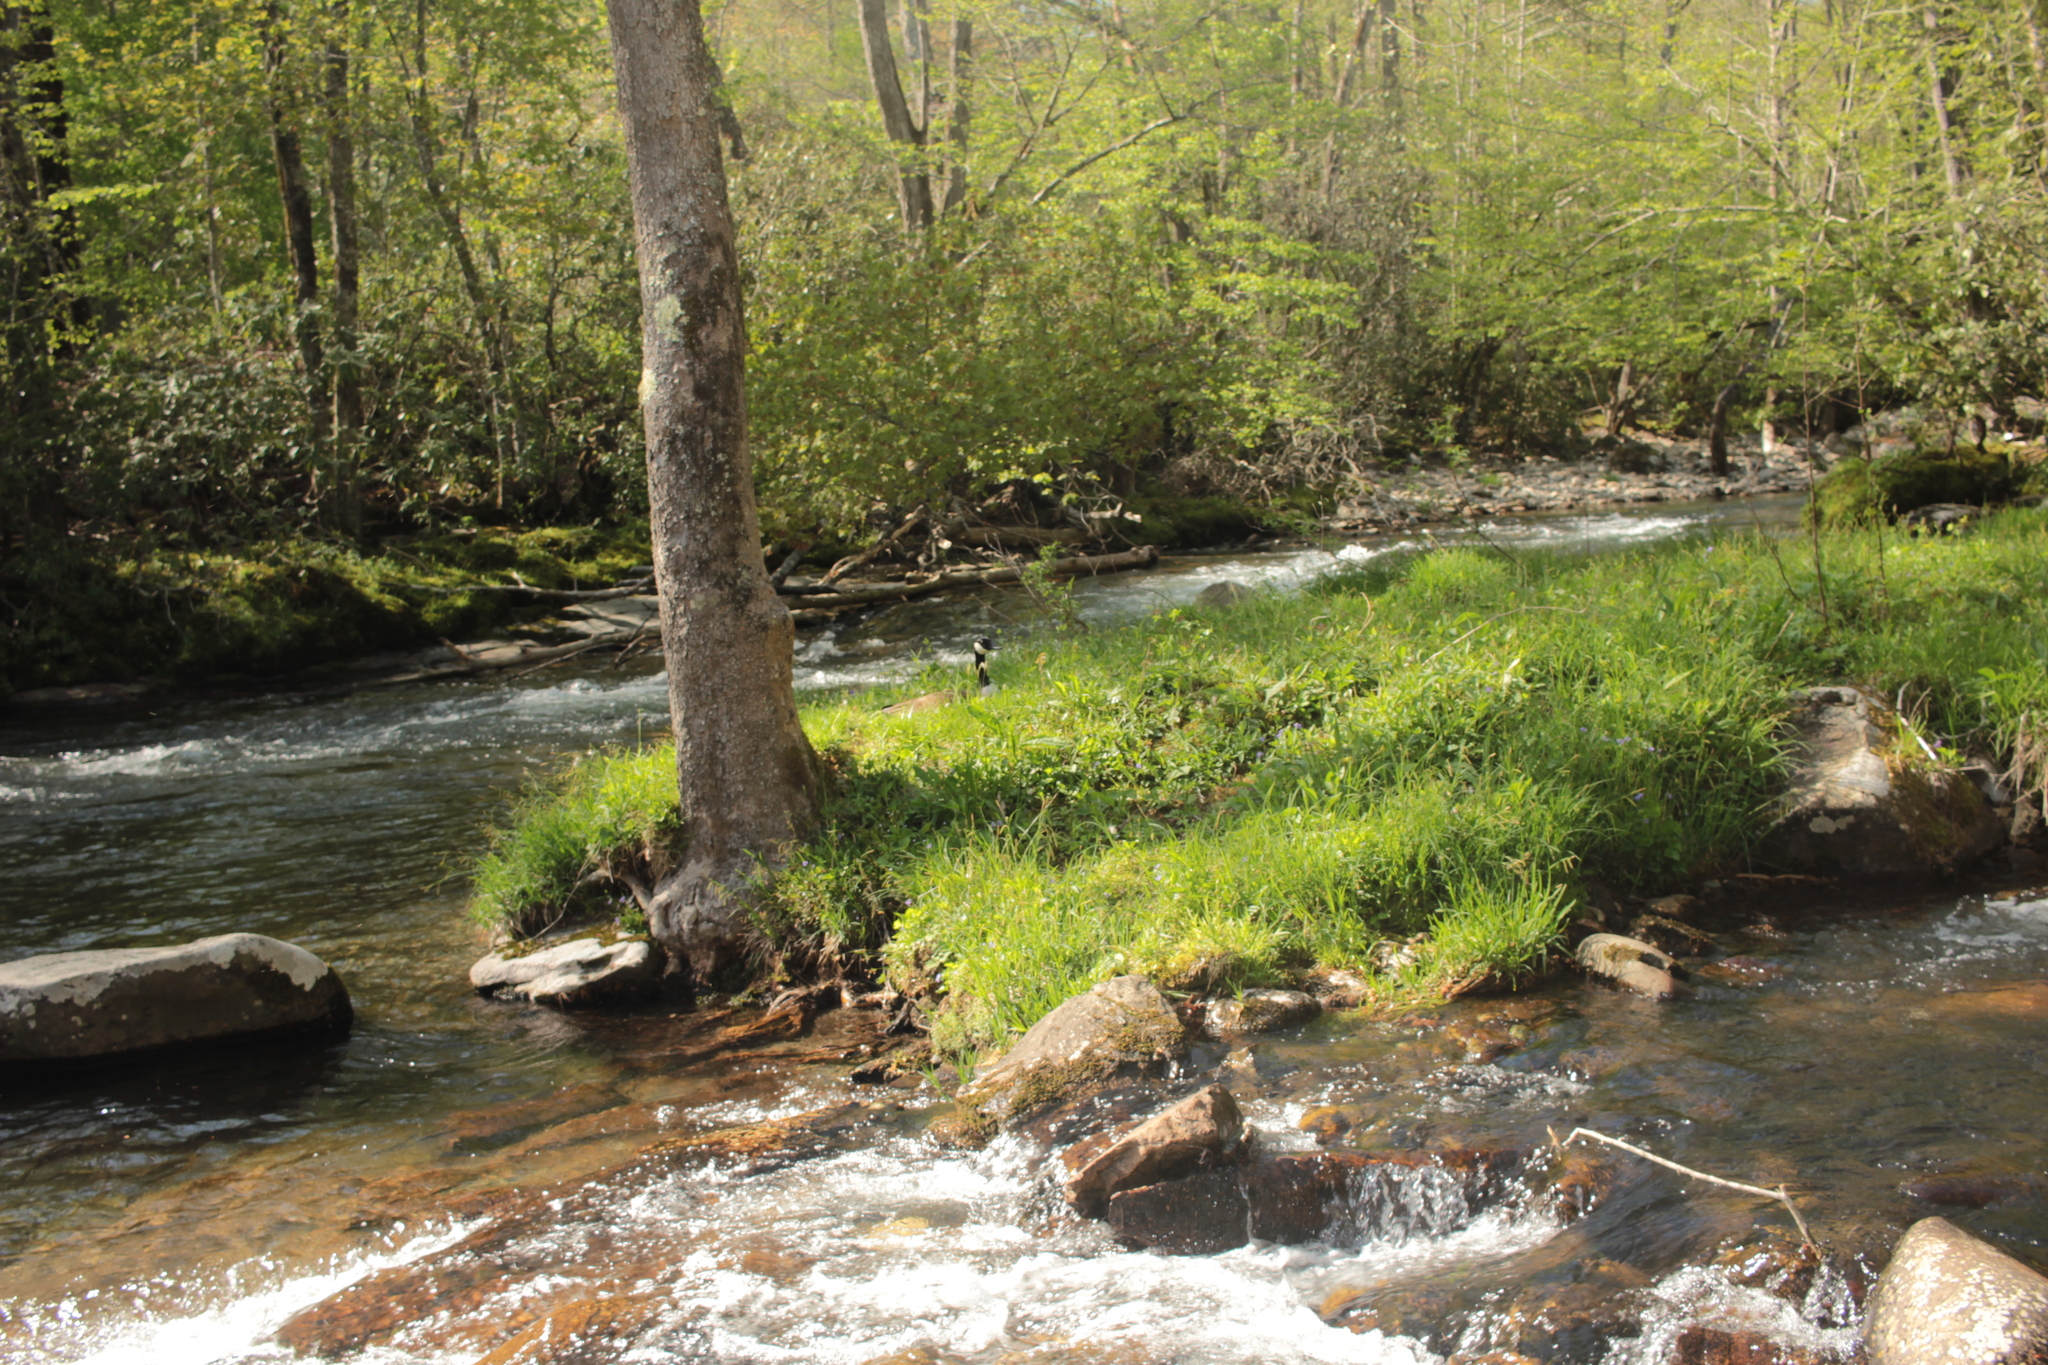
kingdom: Animalia
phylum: Chordata
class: Aves
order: Anseriformes
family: Anatidae
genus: Branta
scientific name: Branta canadensis
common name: Canada goose
